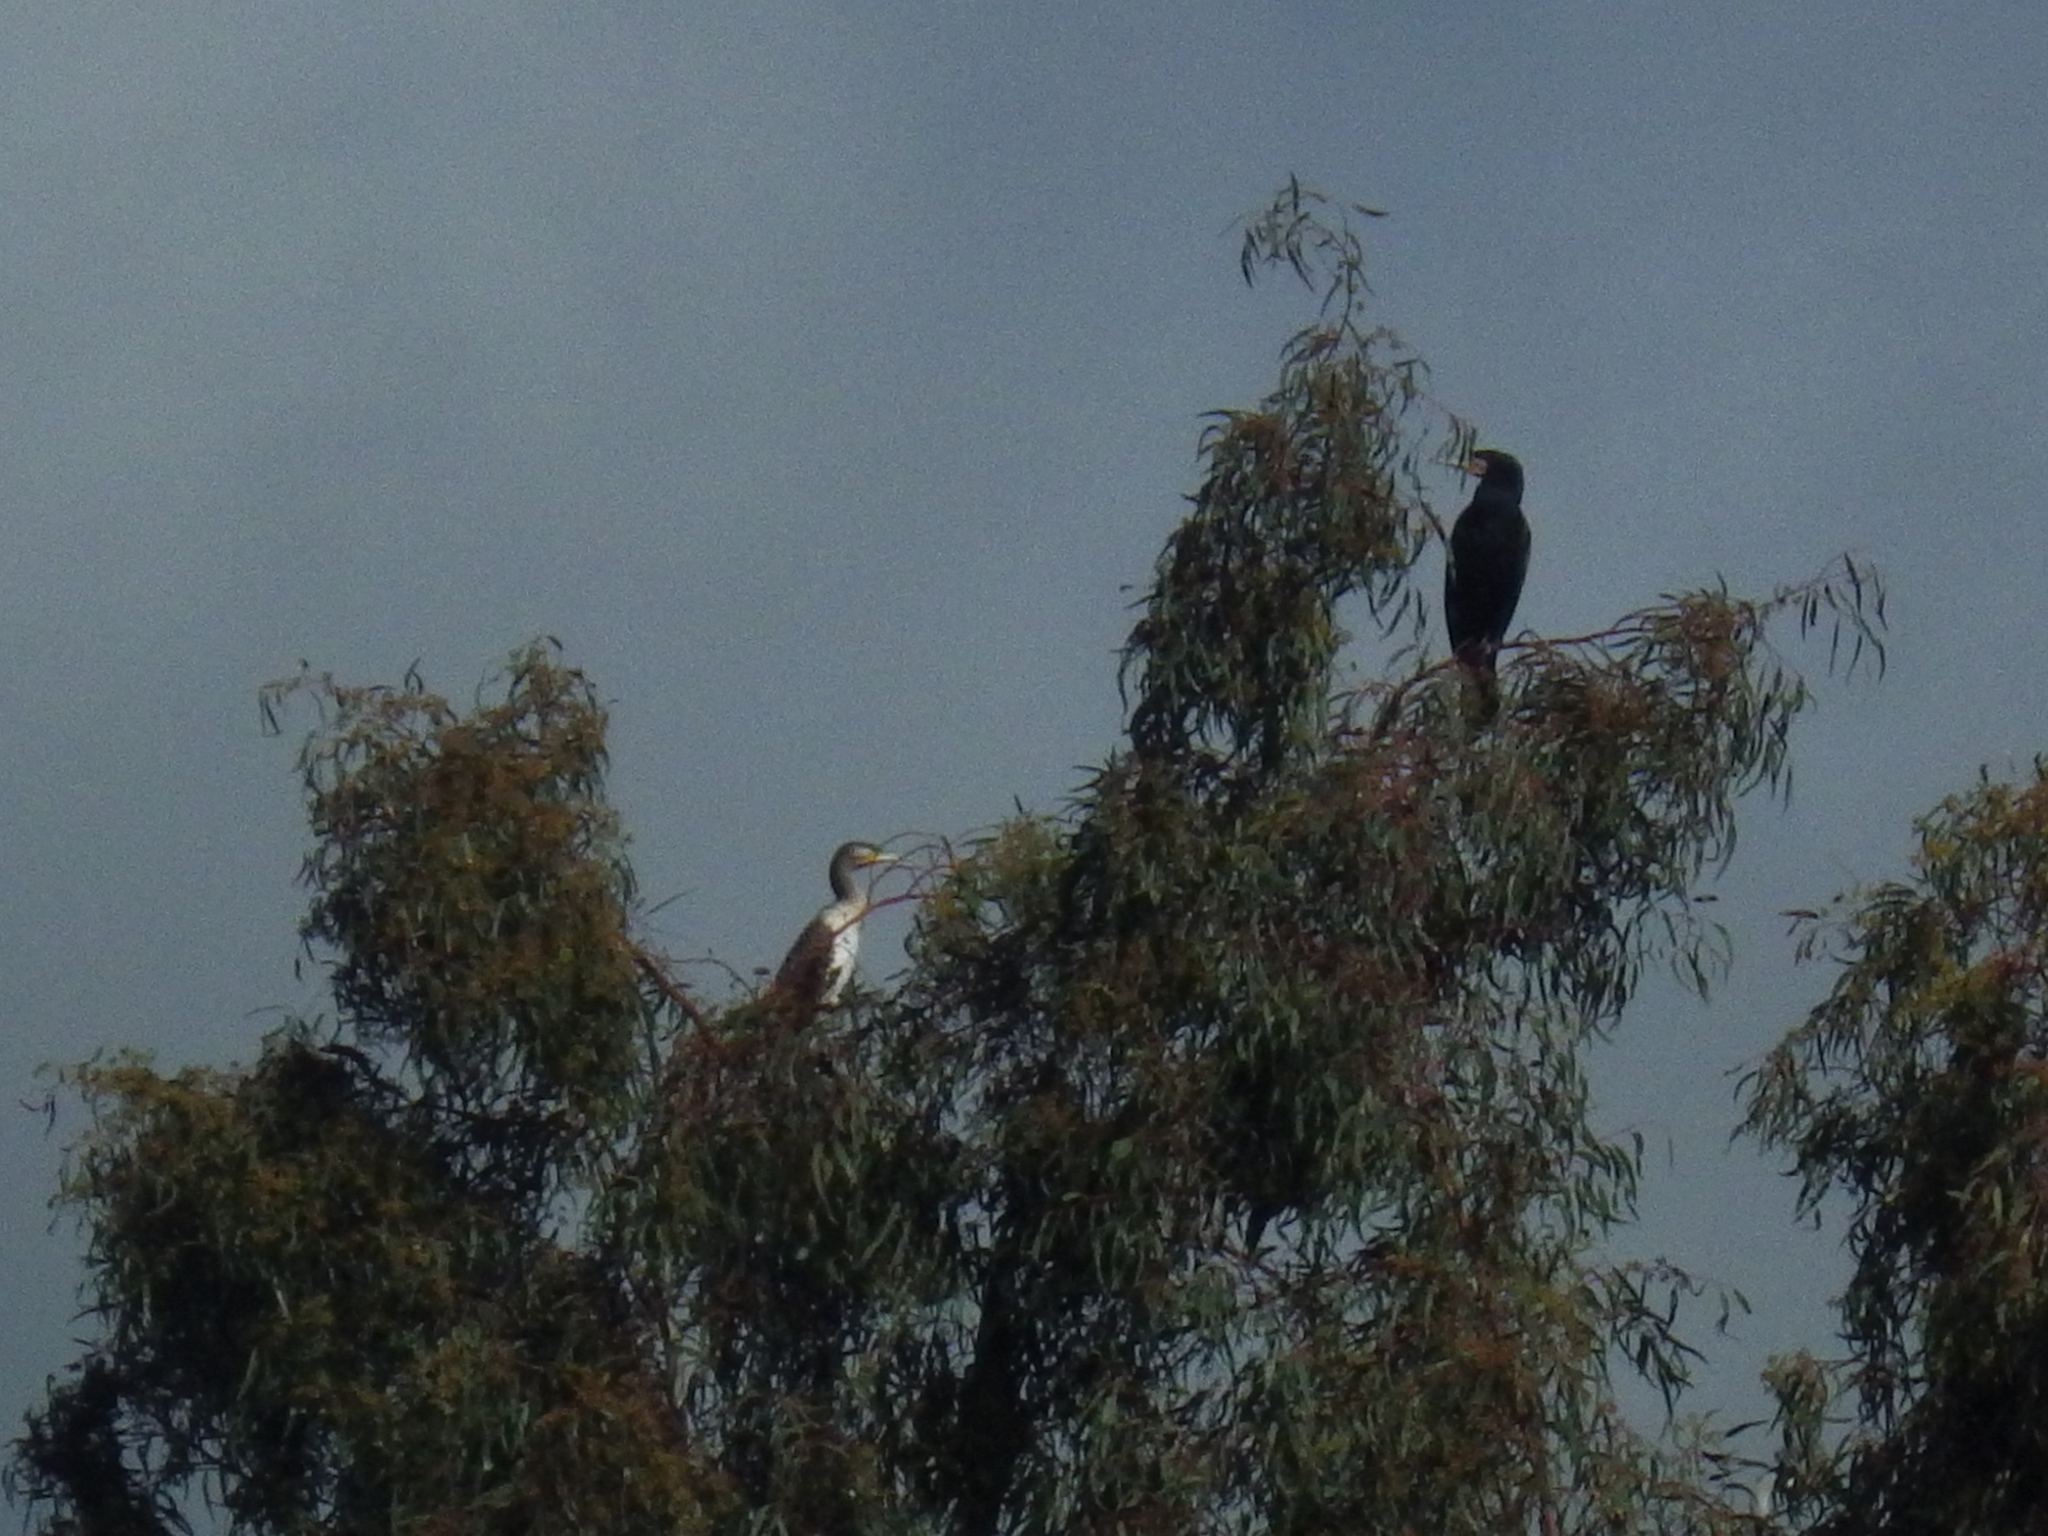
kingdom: Animalia
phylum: Chordata
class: Aves
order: Suliformes
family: Phalacrocoracidae
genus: Phalacrocorax
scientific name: Phalacrocorax carbo
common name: Great cormorant
